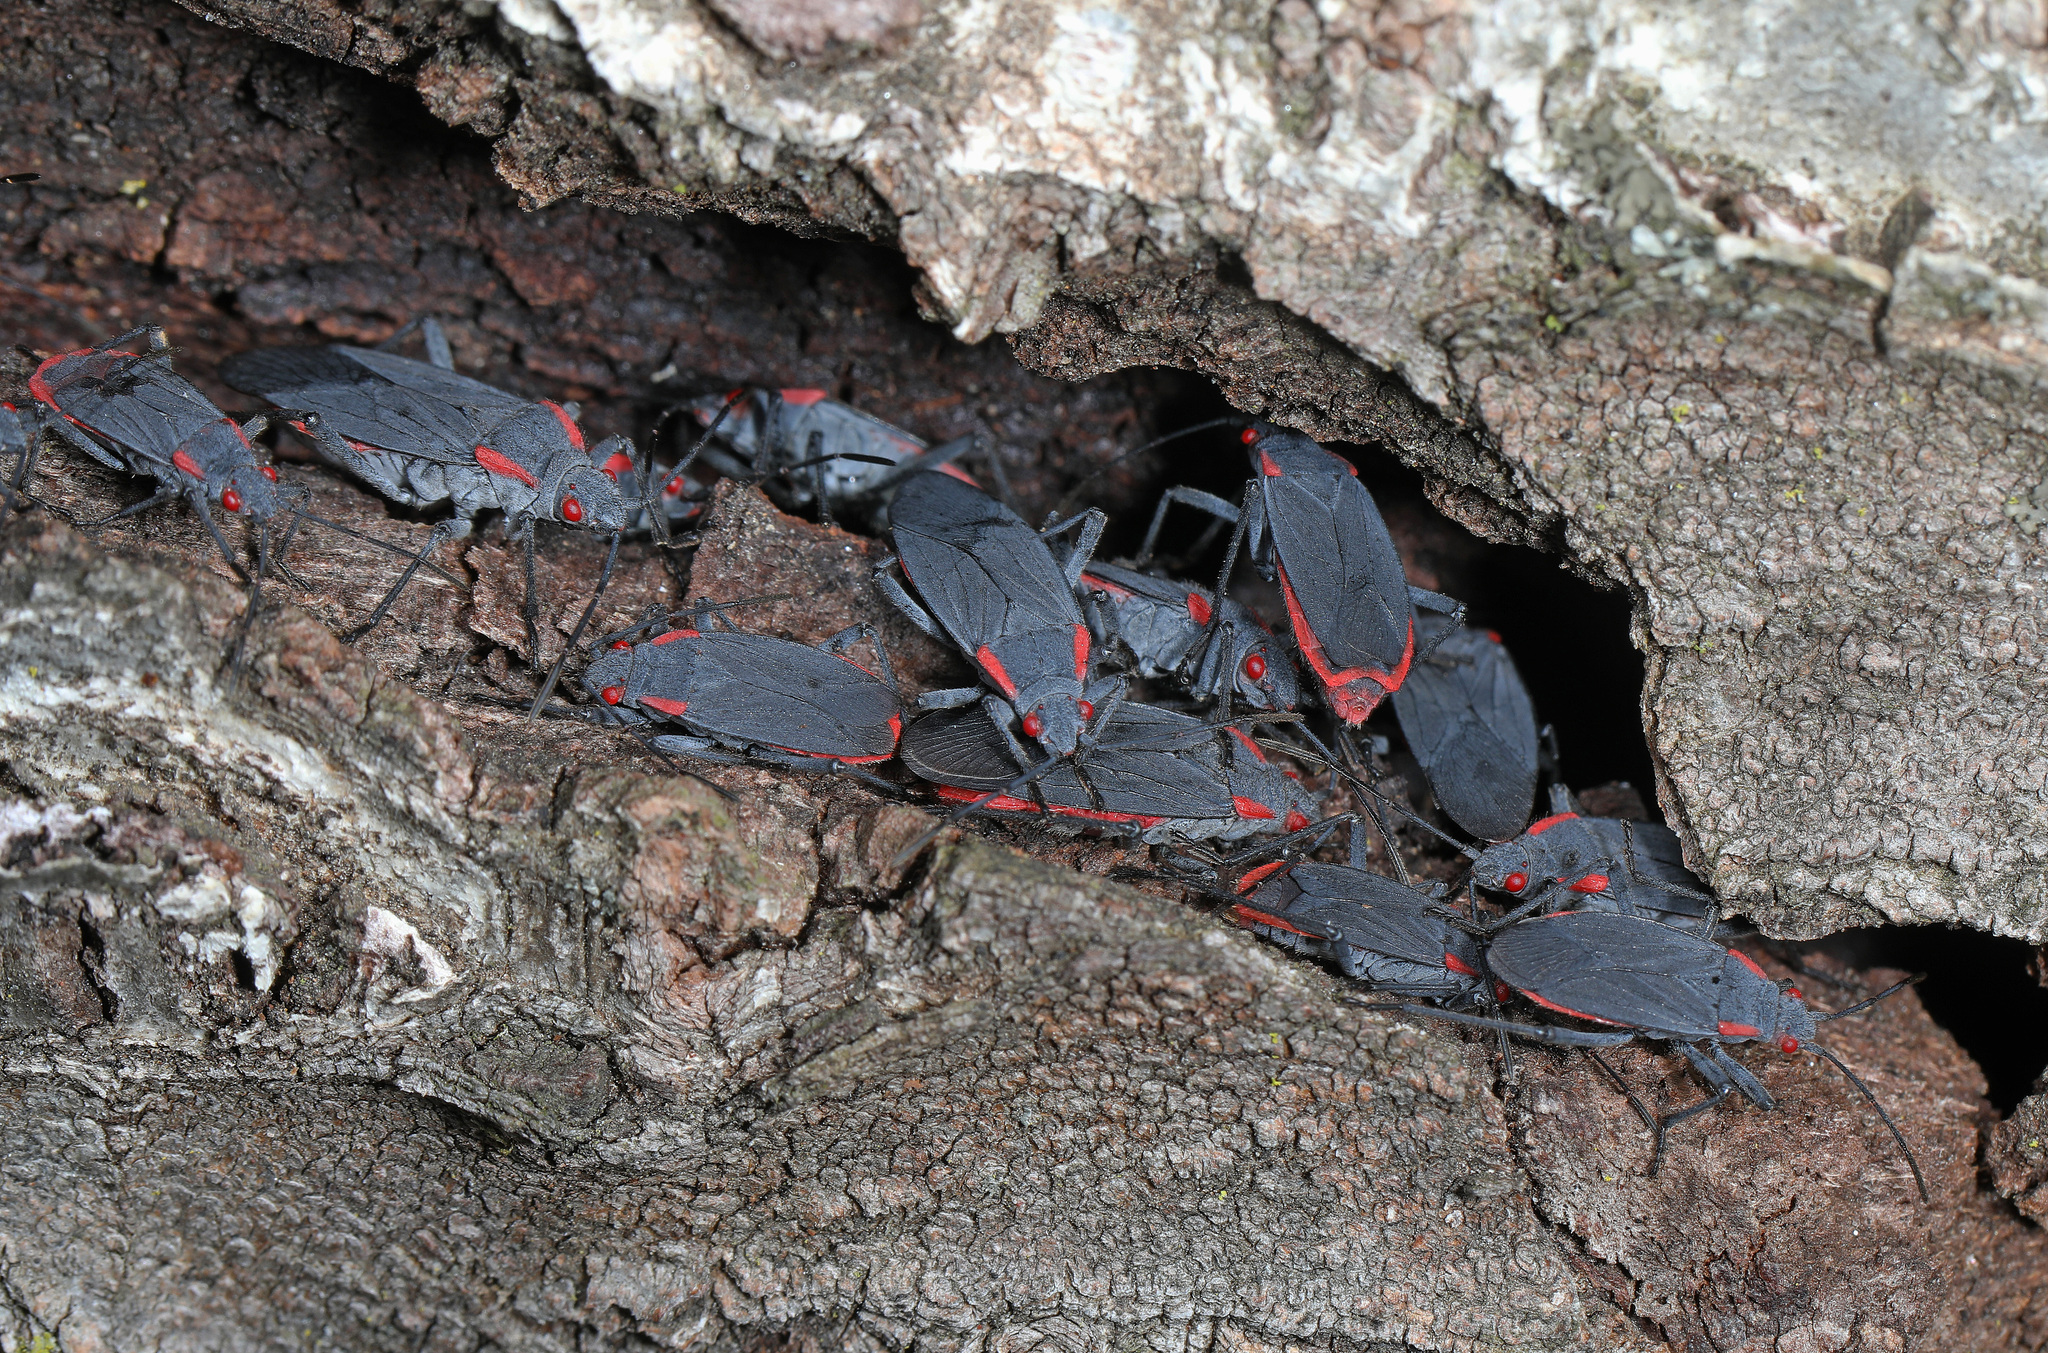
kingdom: Animalia
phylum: Arthropoda
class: Insecta
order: Hemiptera
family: Rhopalidae
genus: Jadera
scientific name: Jadera haematoloma
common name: Red-shouldered bug
